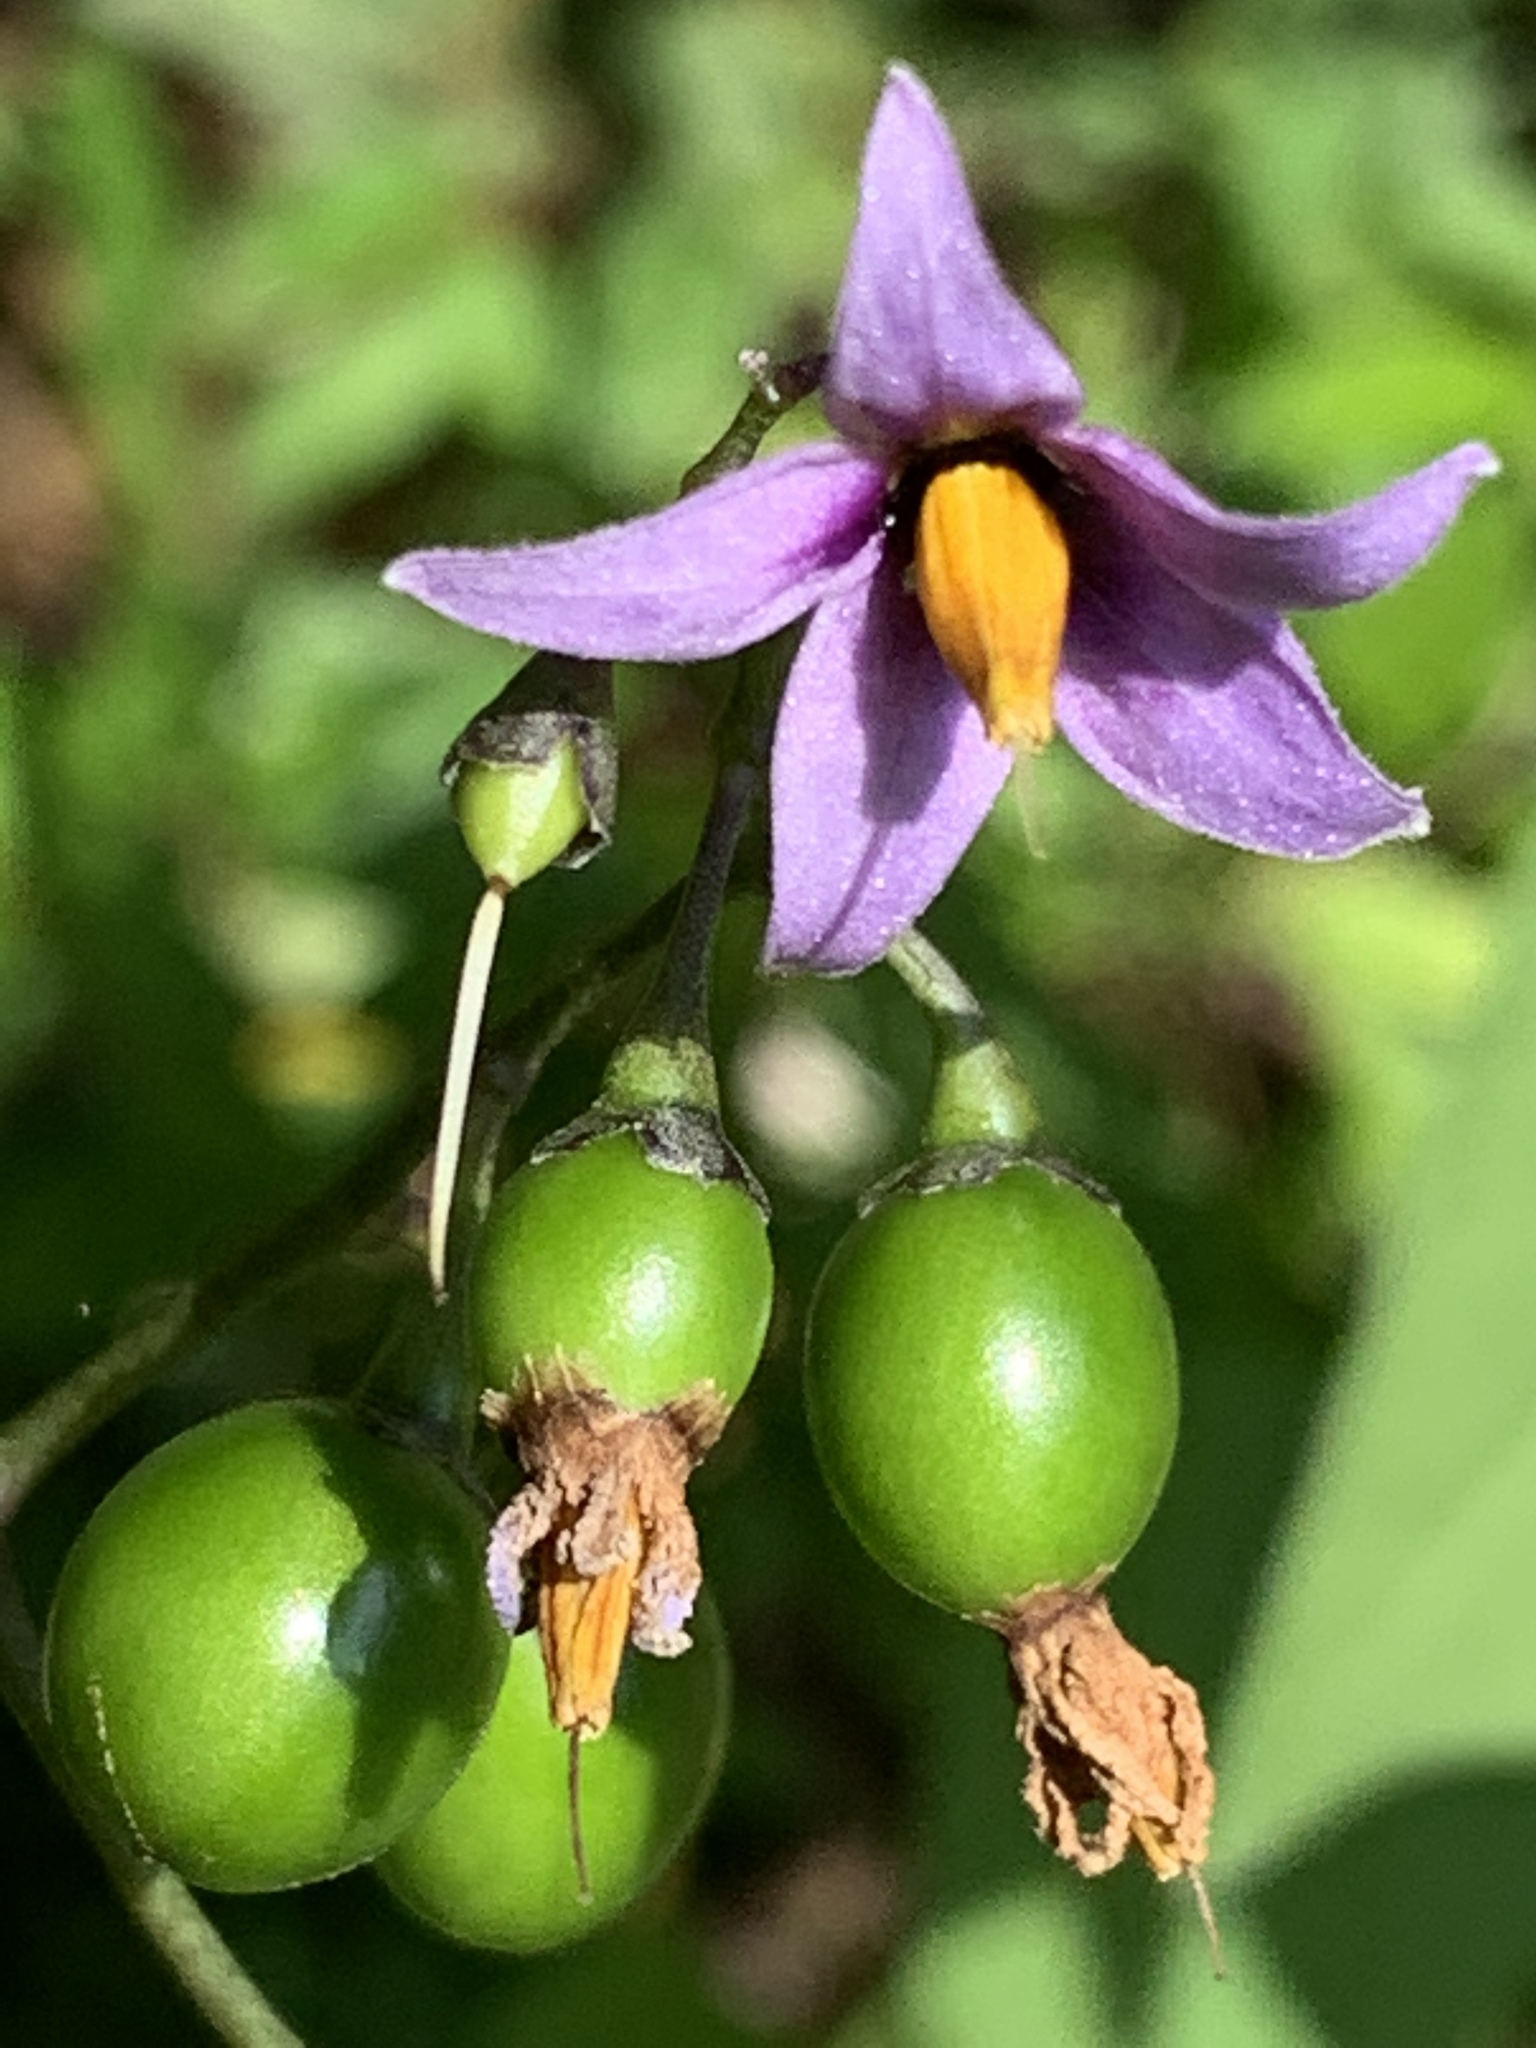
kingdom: Plantae
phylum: Tracheophyta
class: Magnoliopsida
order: Solanales
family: Solanaceae
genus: Solanum
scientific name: Solanum dulcamara
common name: Climbing nightshade
